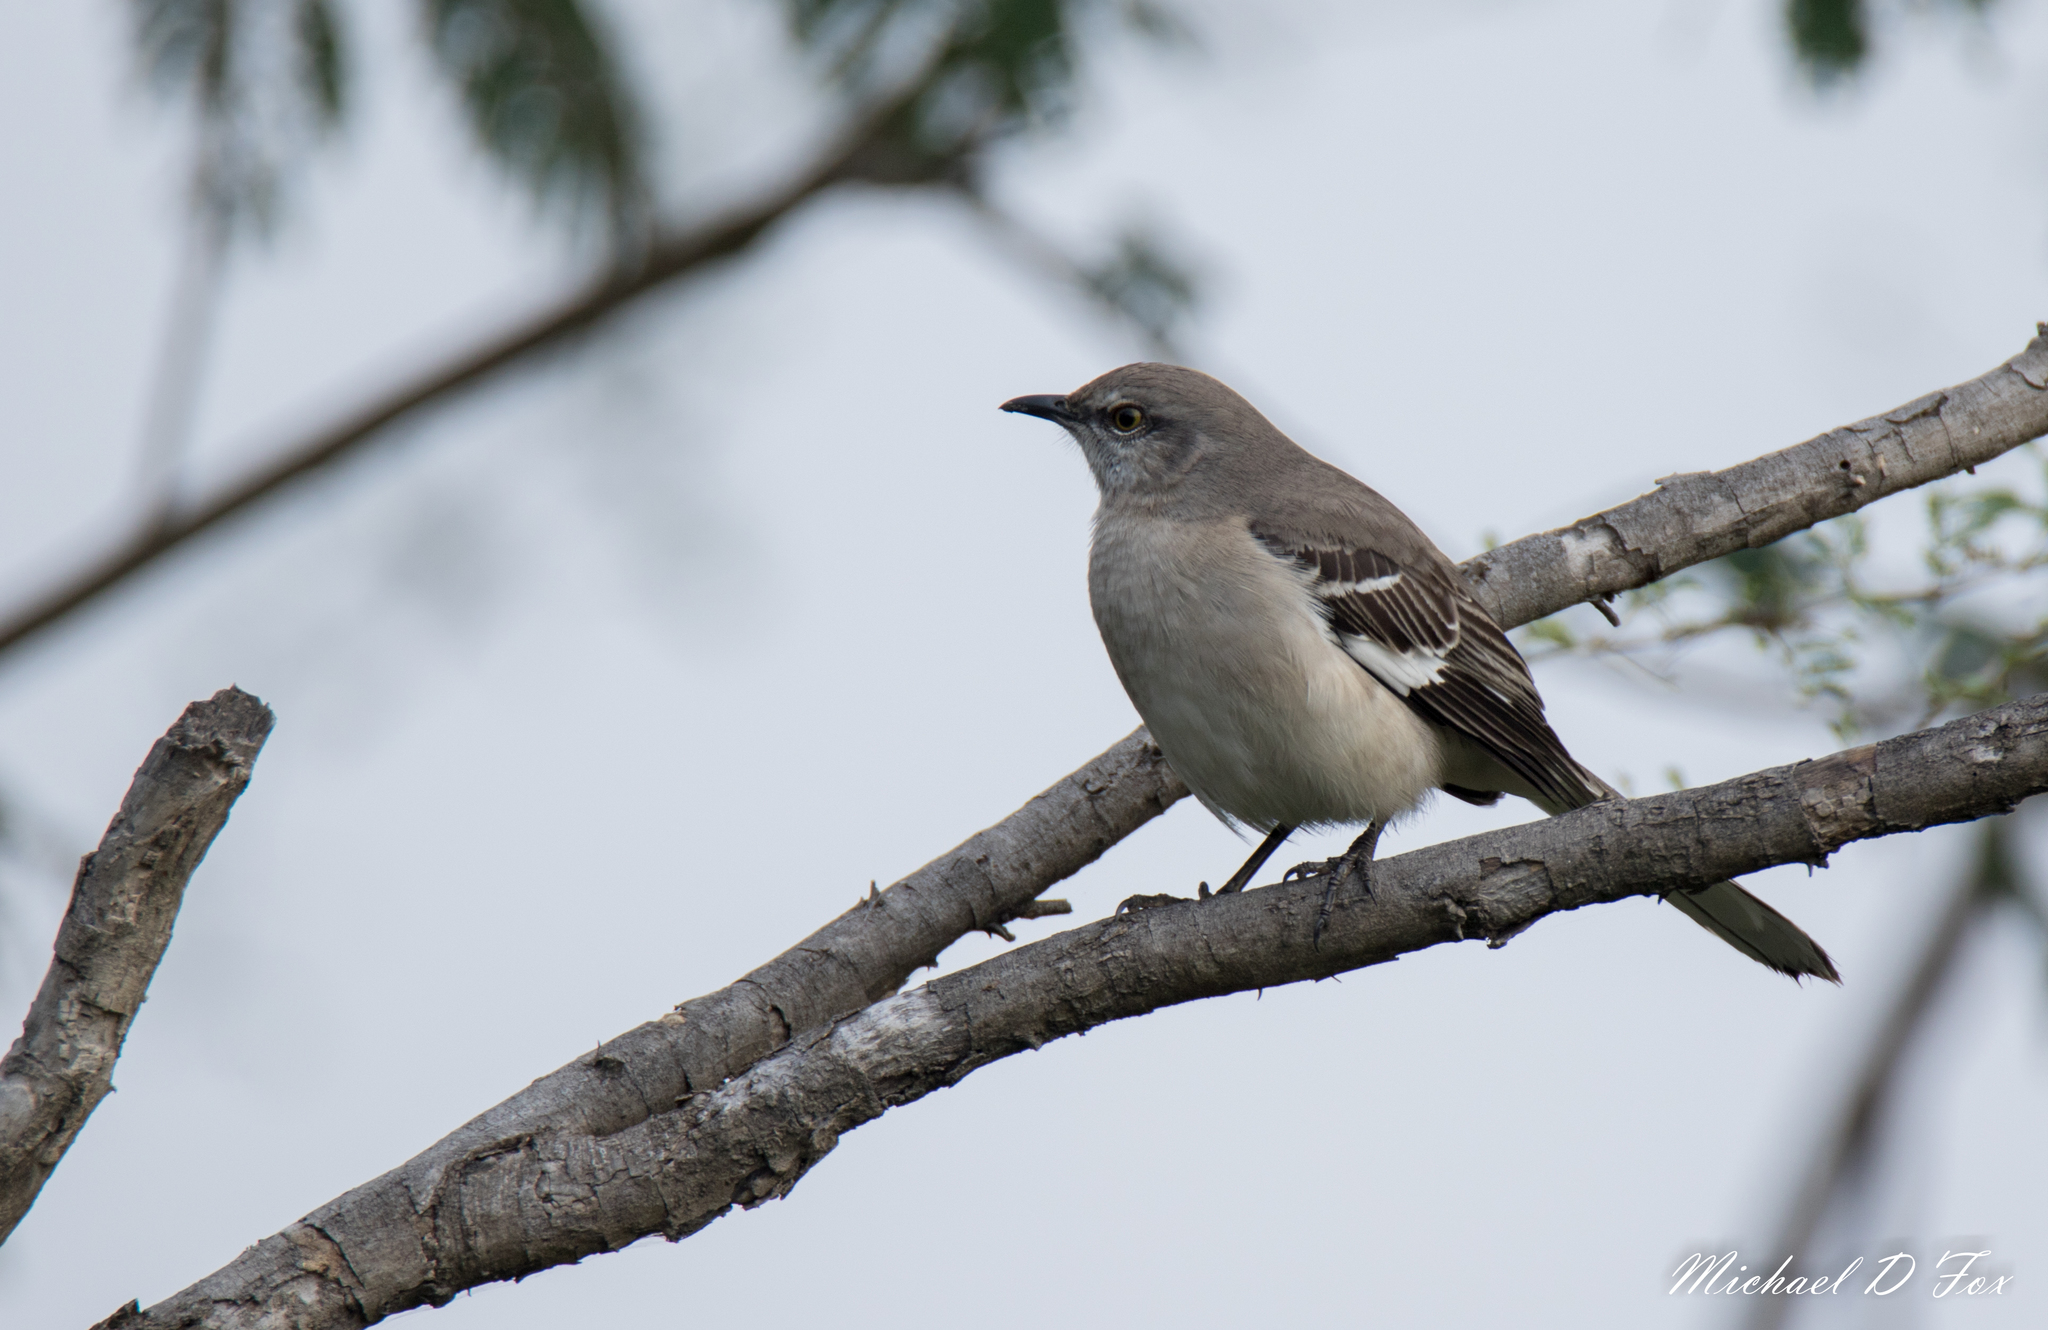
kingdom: Animalia
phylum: Chordata
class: Aves
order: Passeriformes
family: Mimidae
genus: Mimus
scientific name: Mimus polyglottos
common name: Northern mockingbird
